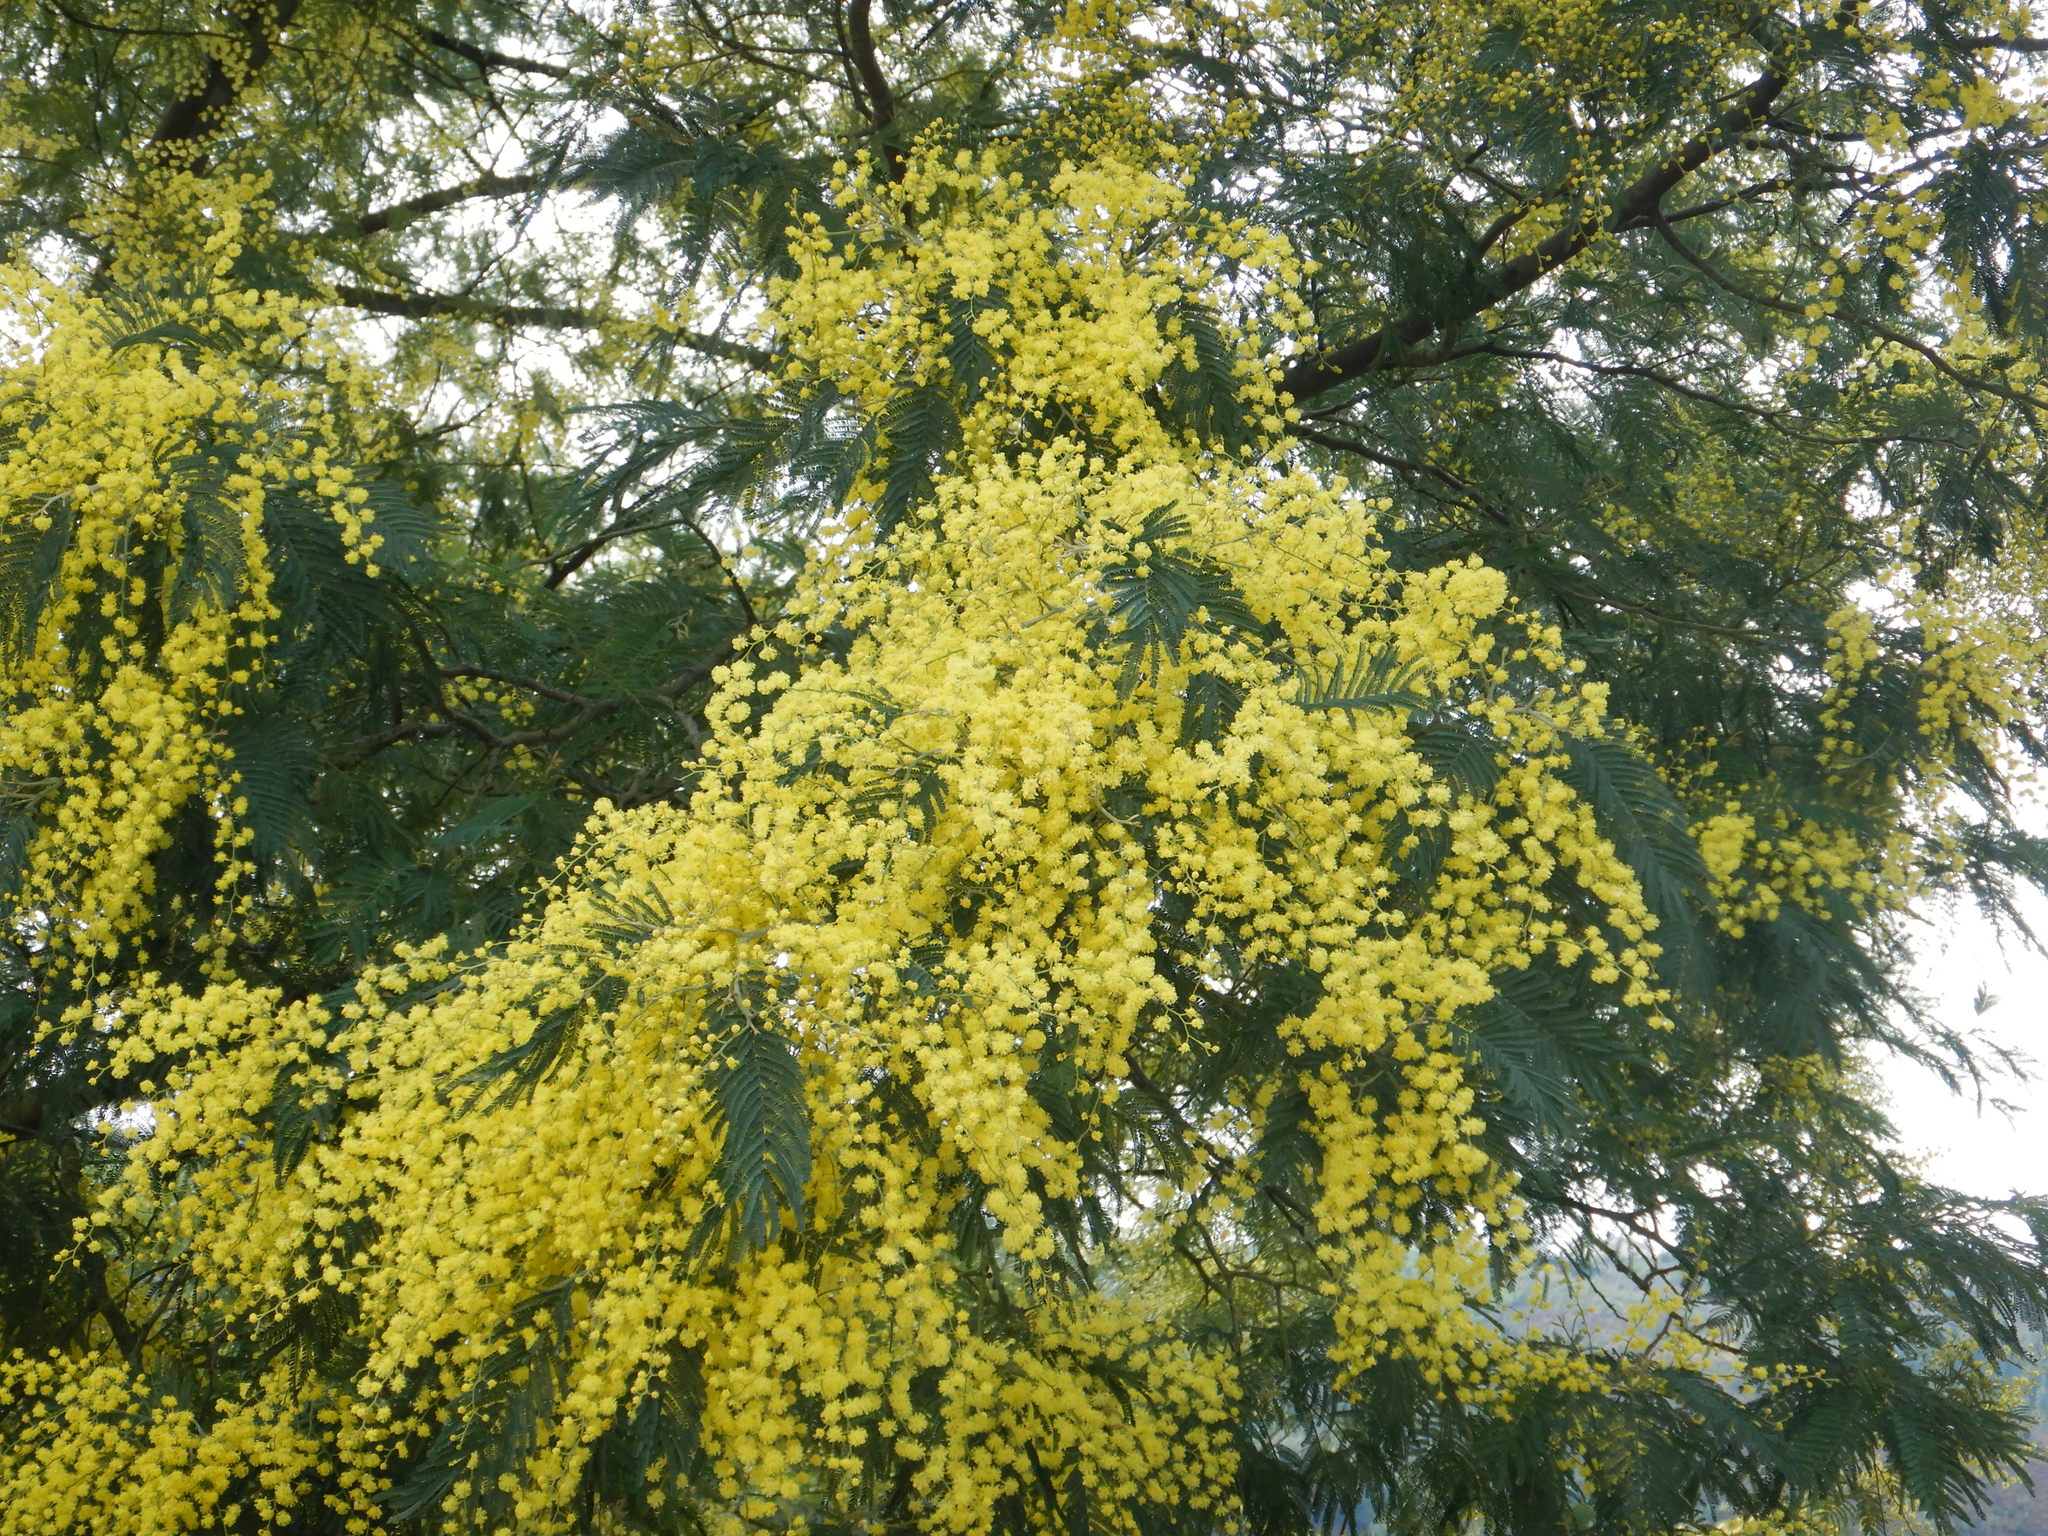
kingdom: Plantae
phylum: Tracheophyta
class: Magnoliopsida
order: Fabales
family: Fabaceae
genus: Acacia
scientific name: Acacia dealbata
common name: Silver wattle
